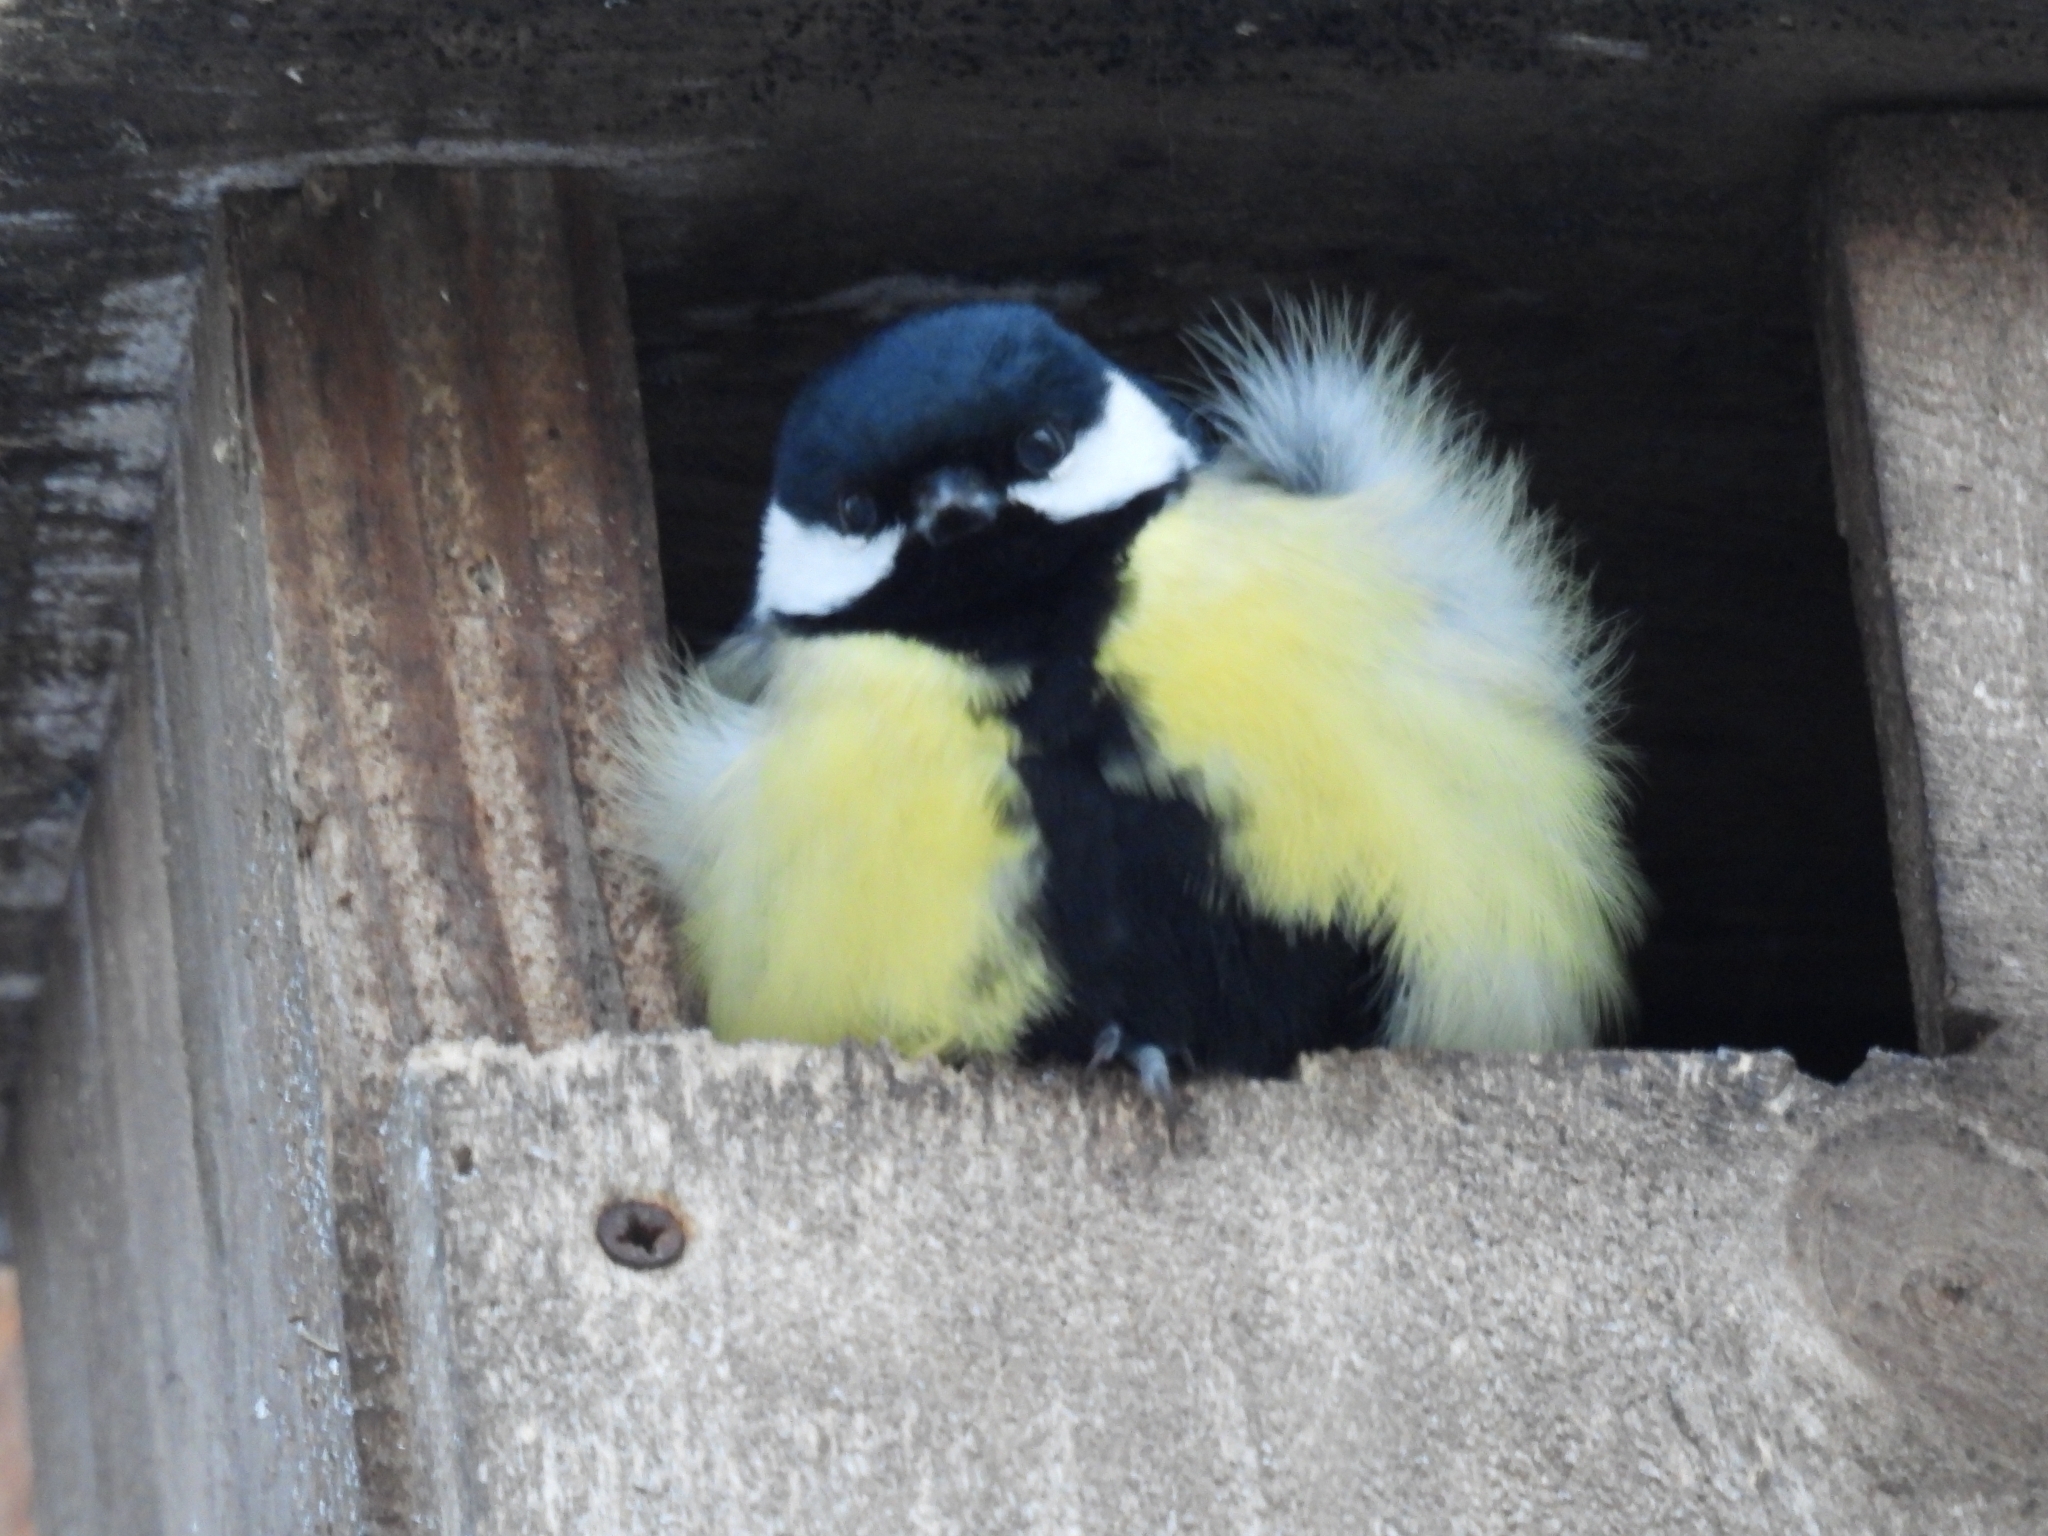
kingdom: Animalia
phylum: Chordata
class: Aves
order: Passeriformes
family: Paridae
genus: Parus
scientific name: Parus major
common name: Great tit
